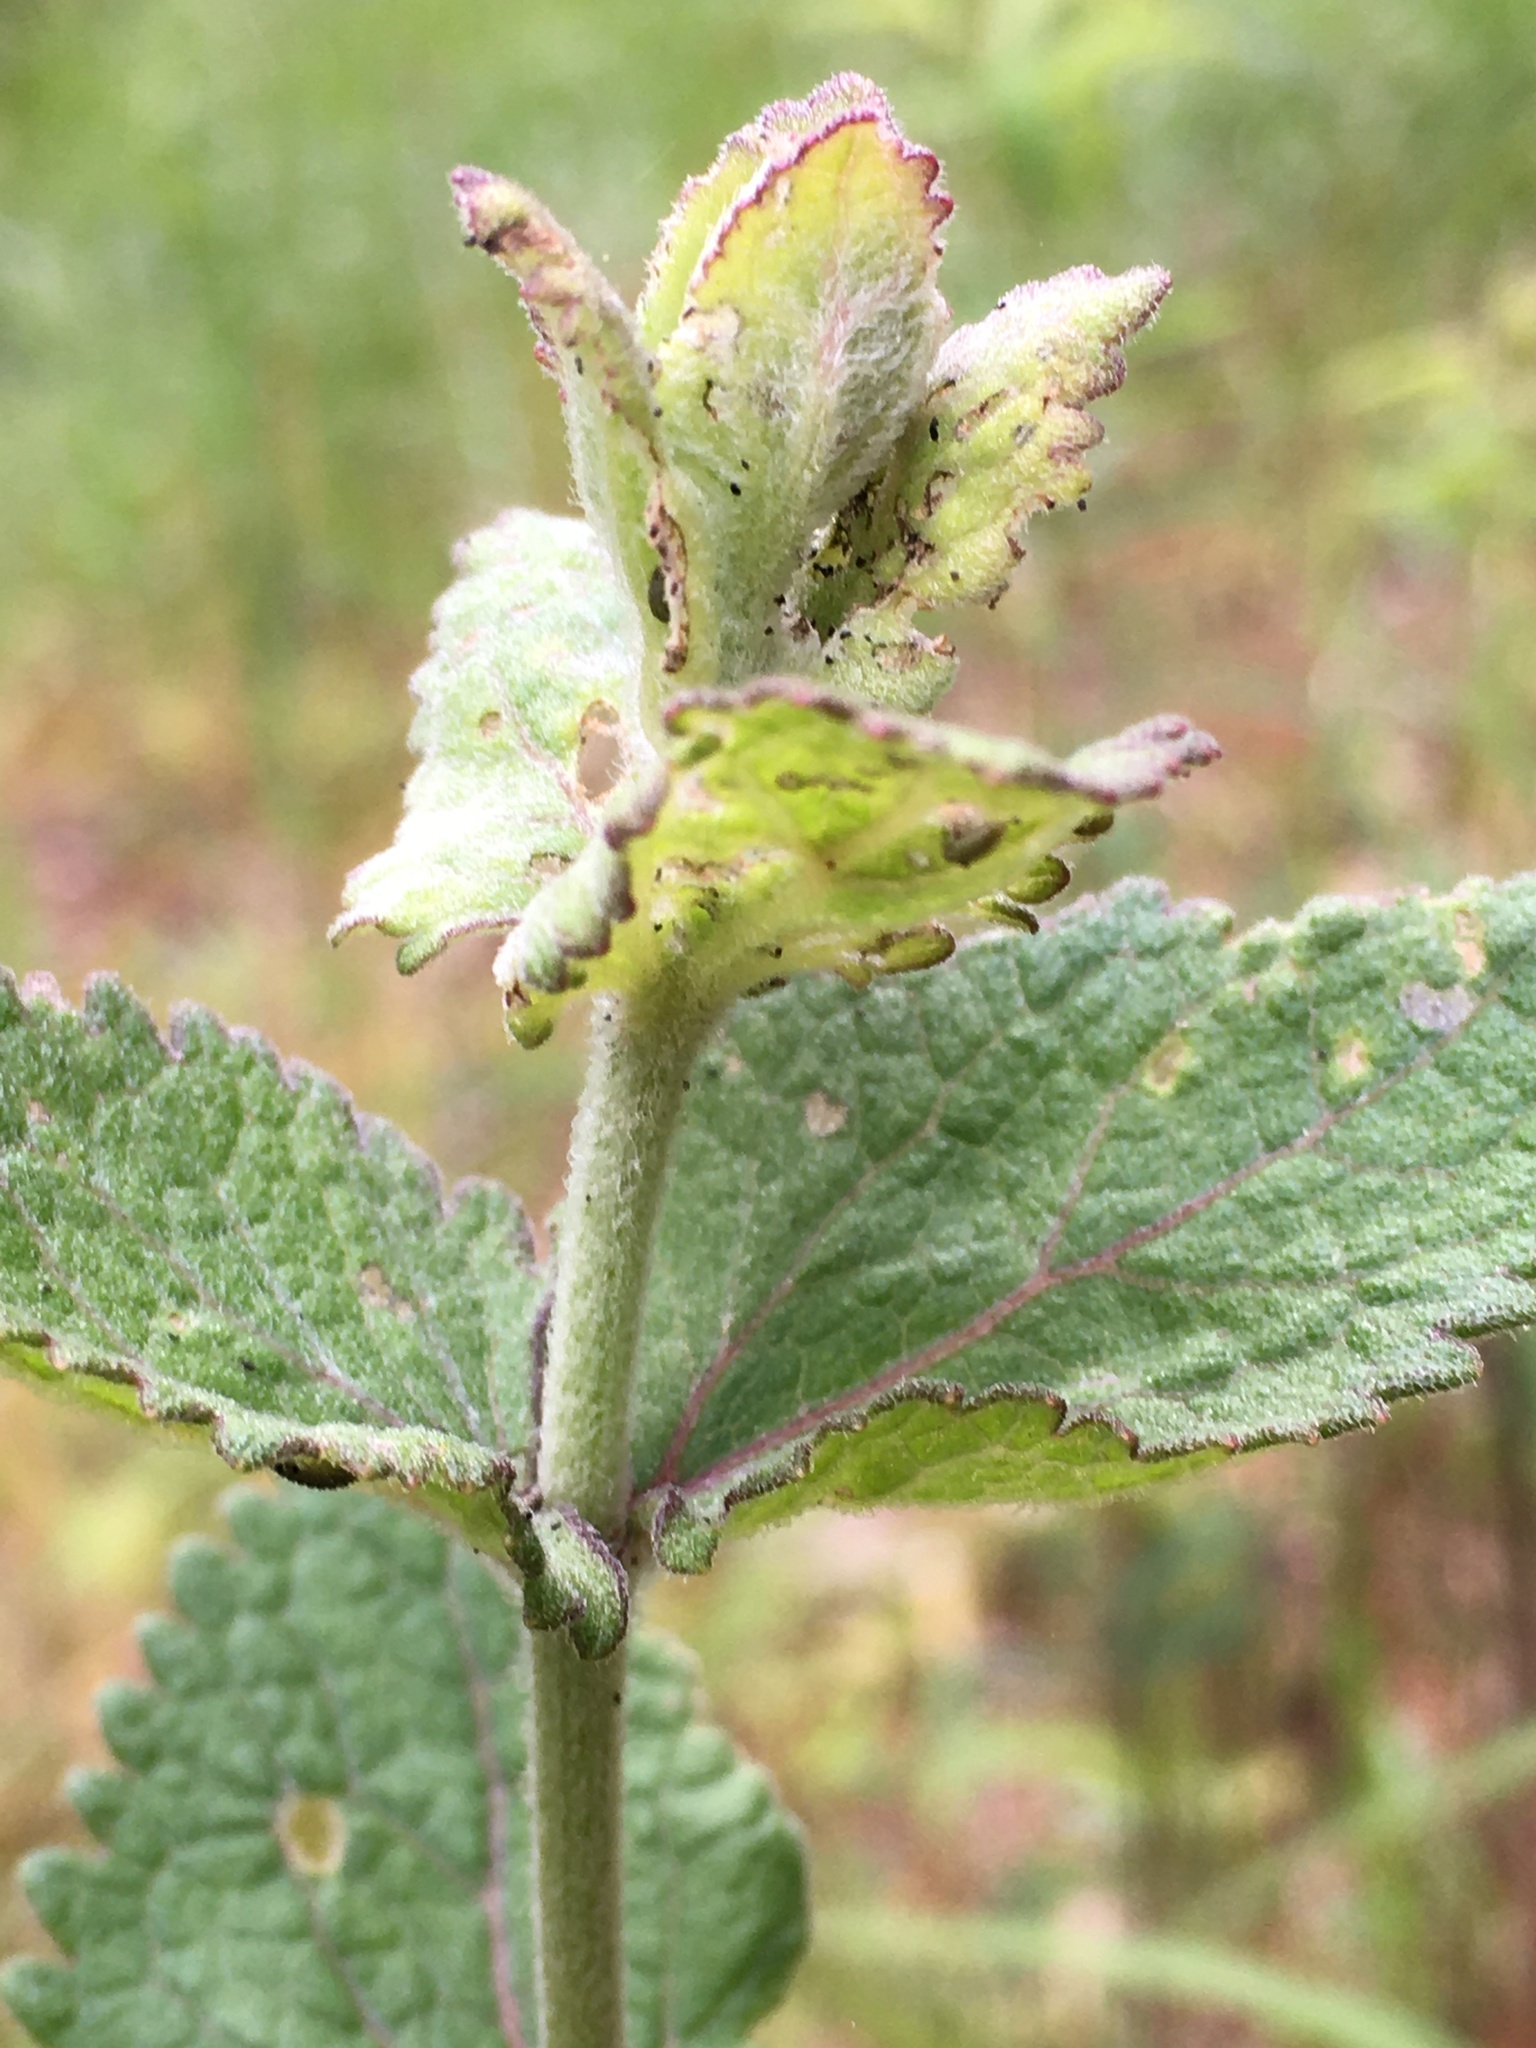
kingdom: Plantae
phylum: Tracheophyta
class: Magnoliopsida
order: Asterales
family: Asteraceae
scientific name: Asteraceae
